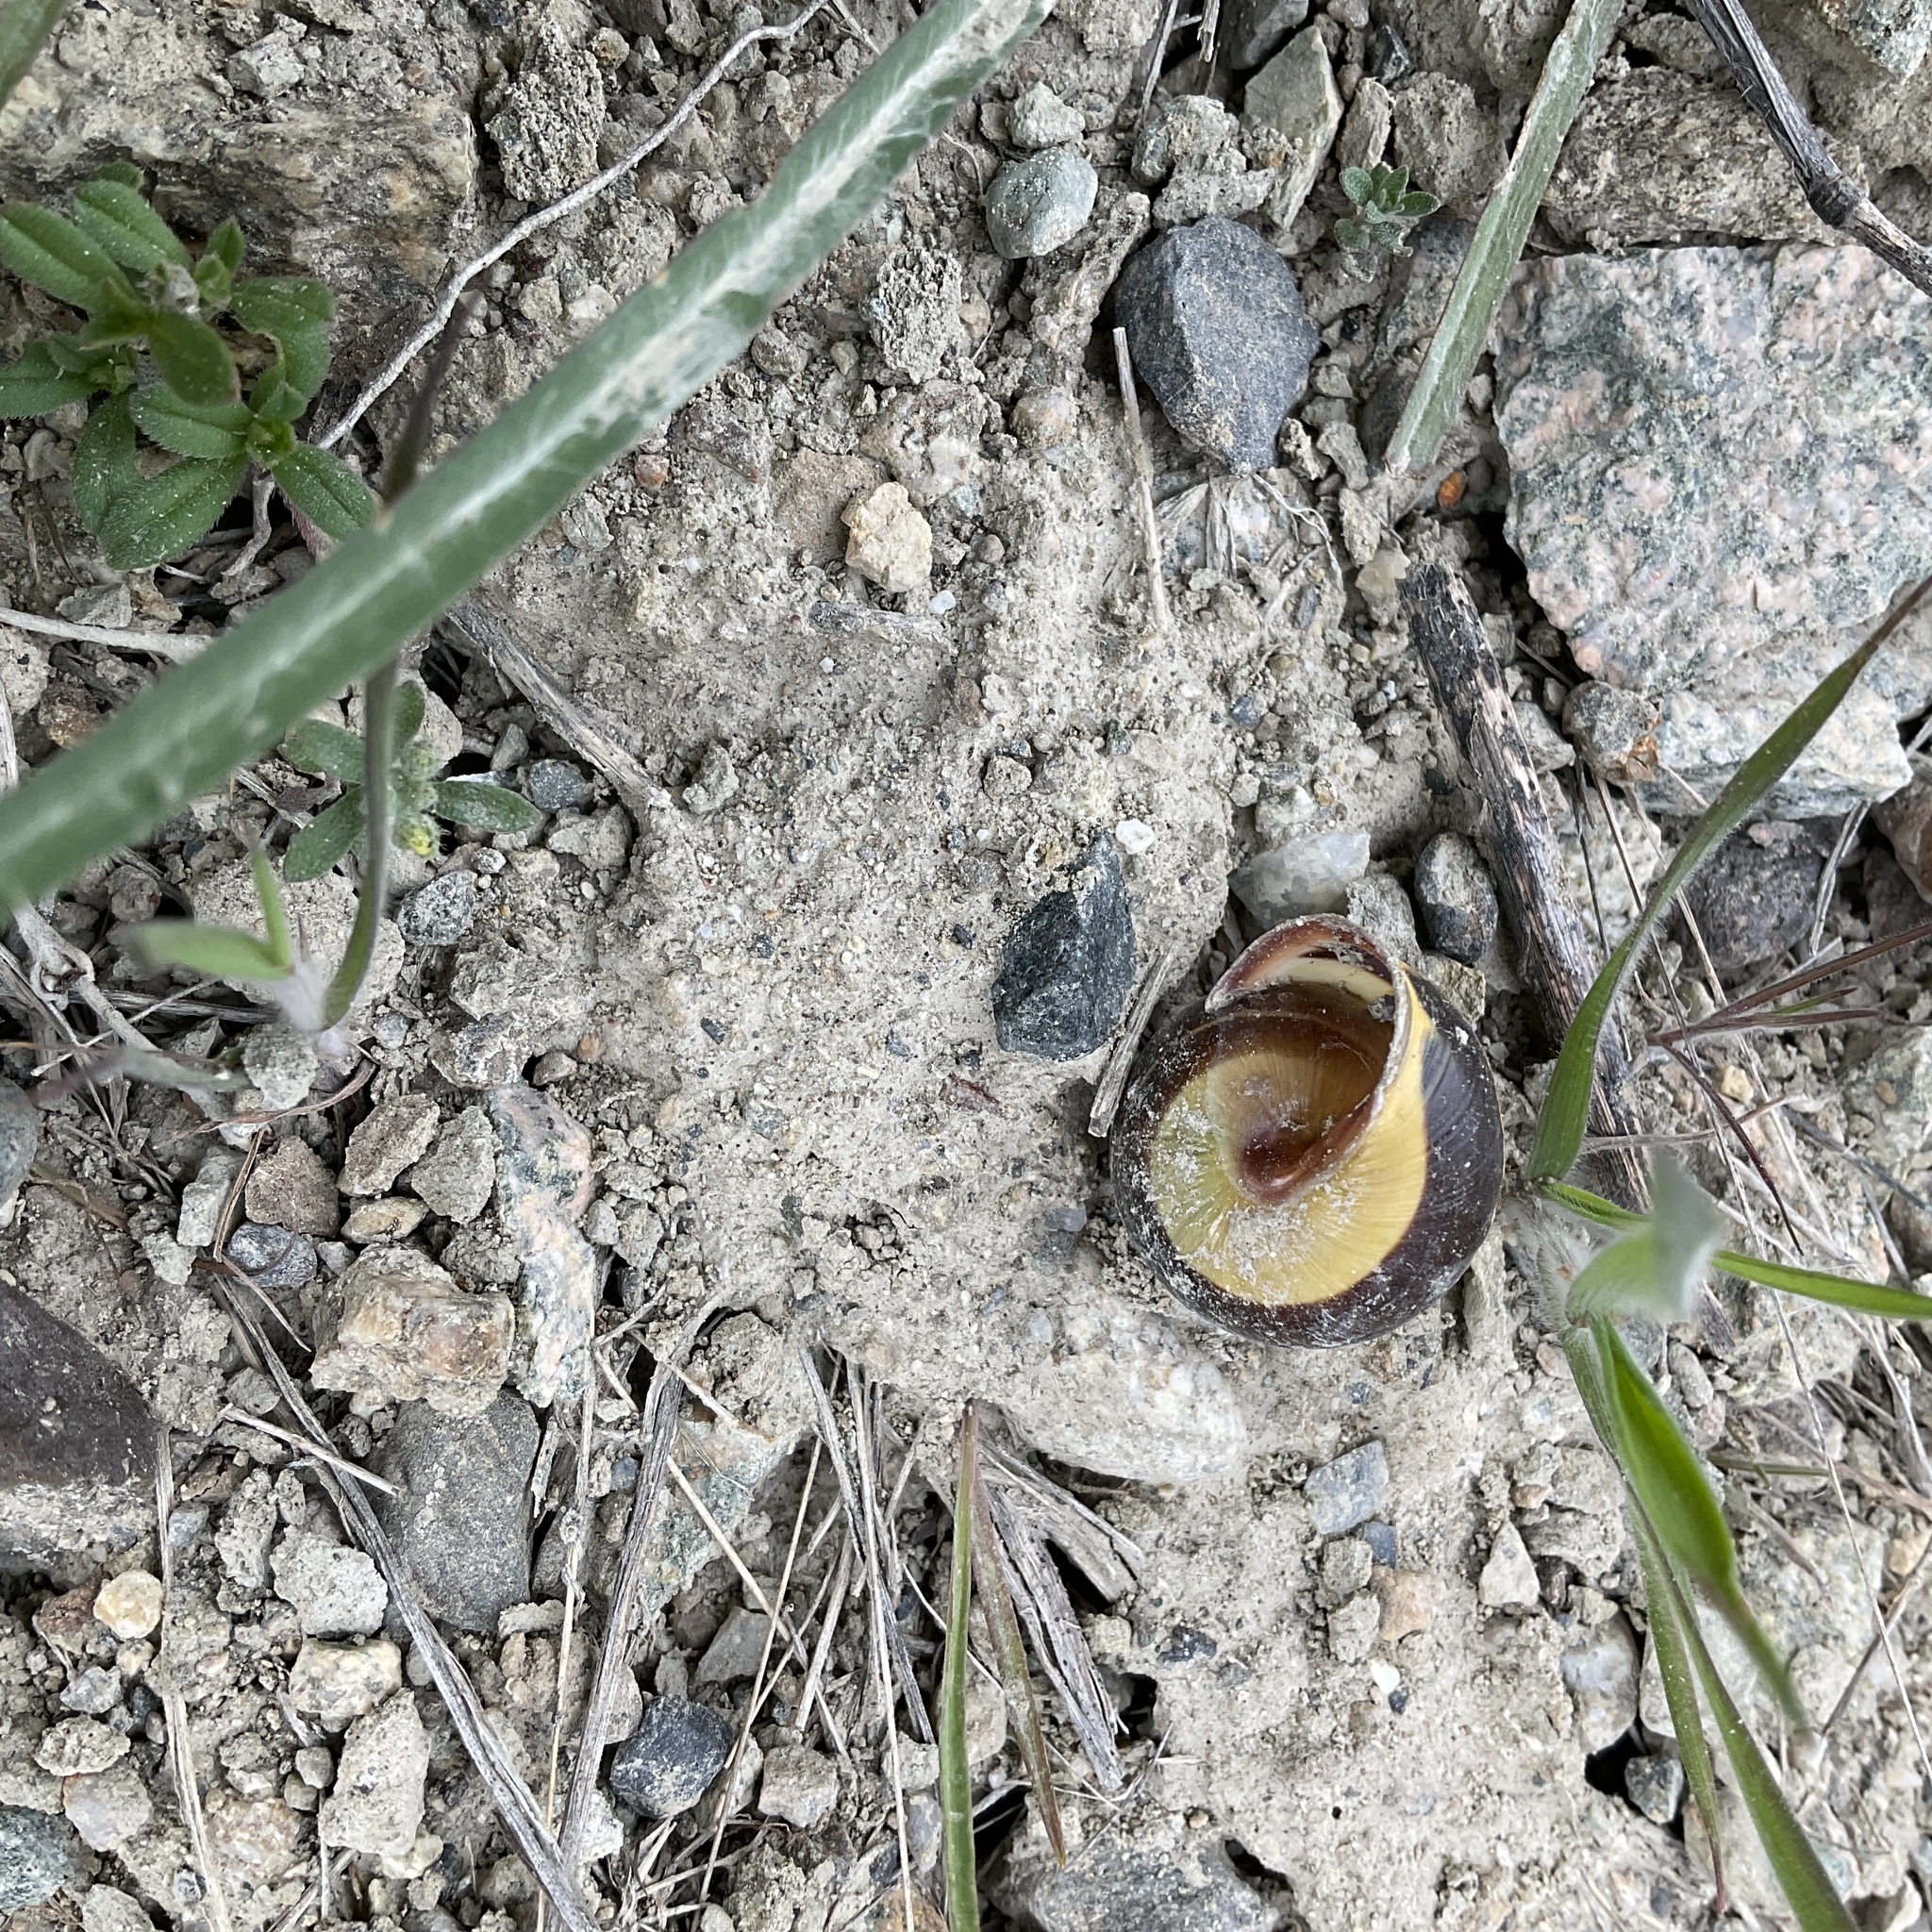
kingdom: Animalia
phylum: Mollusca
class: Gastropoda
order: Stylommatophora
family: Helicidae
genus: Cepaea
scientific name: Cepaea nemoralis
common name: Grovesnail
